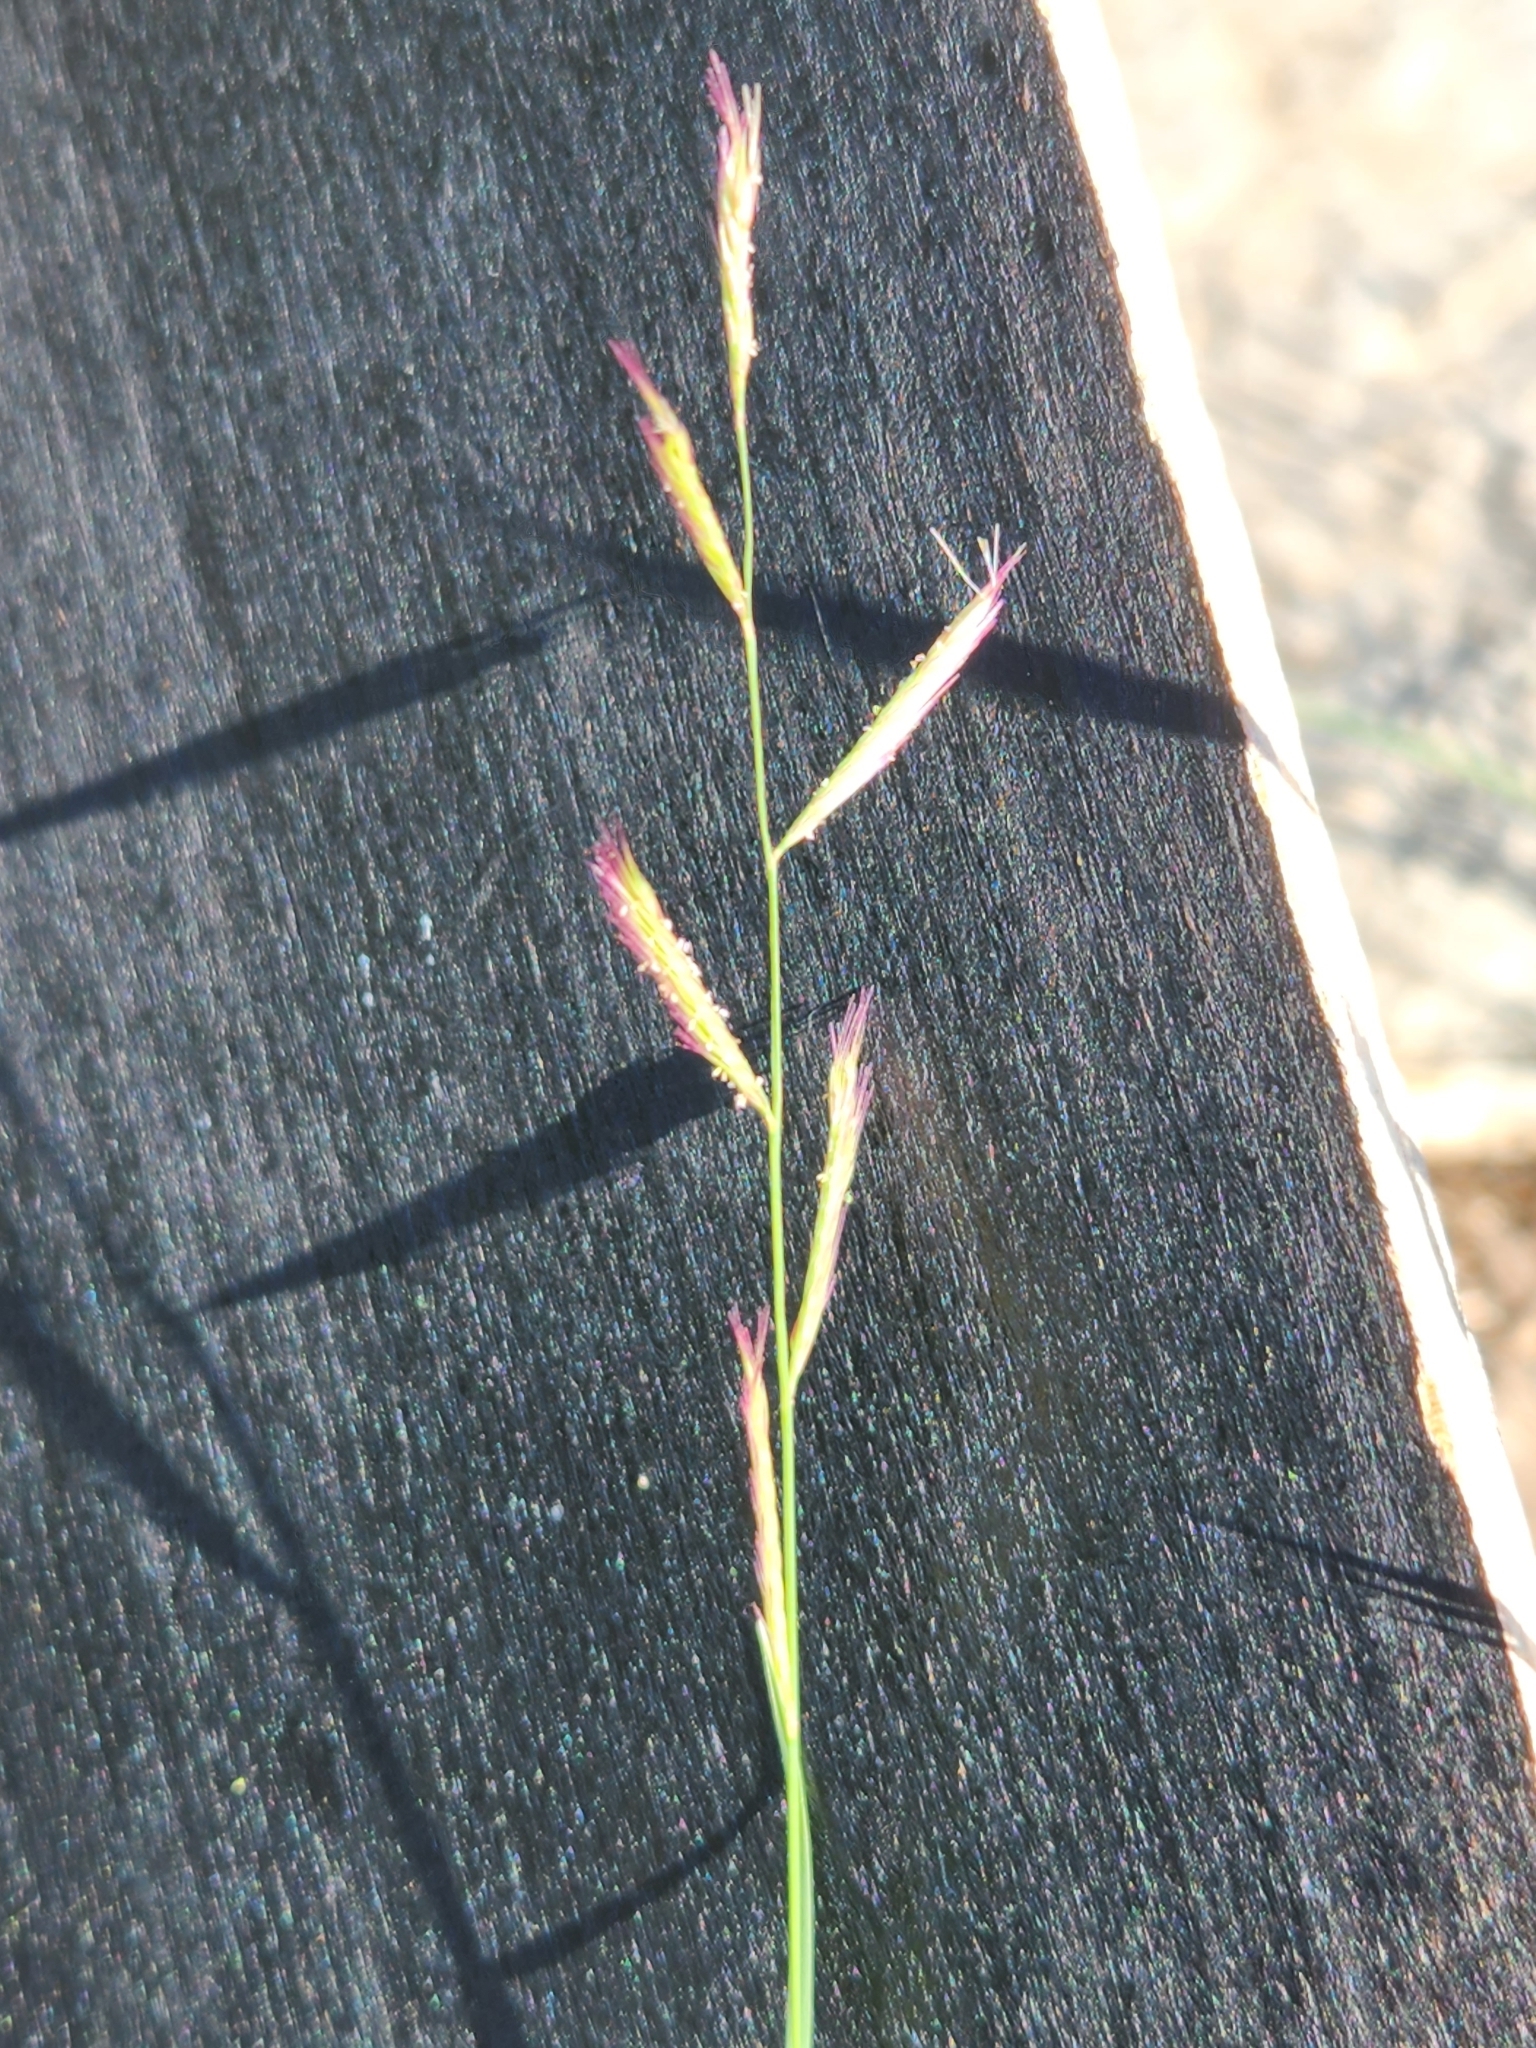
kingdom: Plantae
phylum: Tracheophyta
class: Liliopsida
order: Poales
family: Poaceae
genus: Bouteloua
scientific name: Bouteloua trifida
